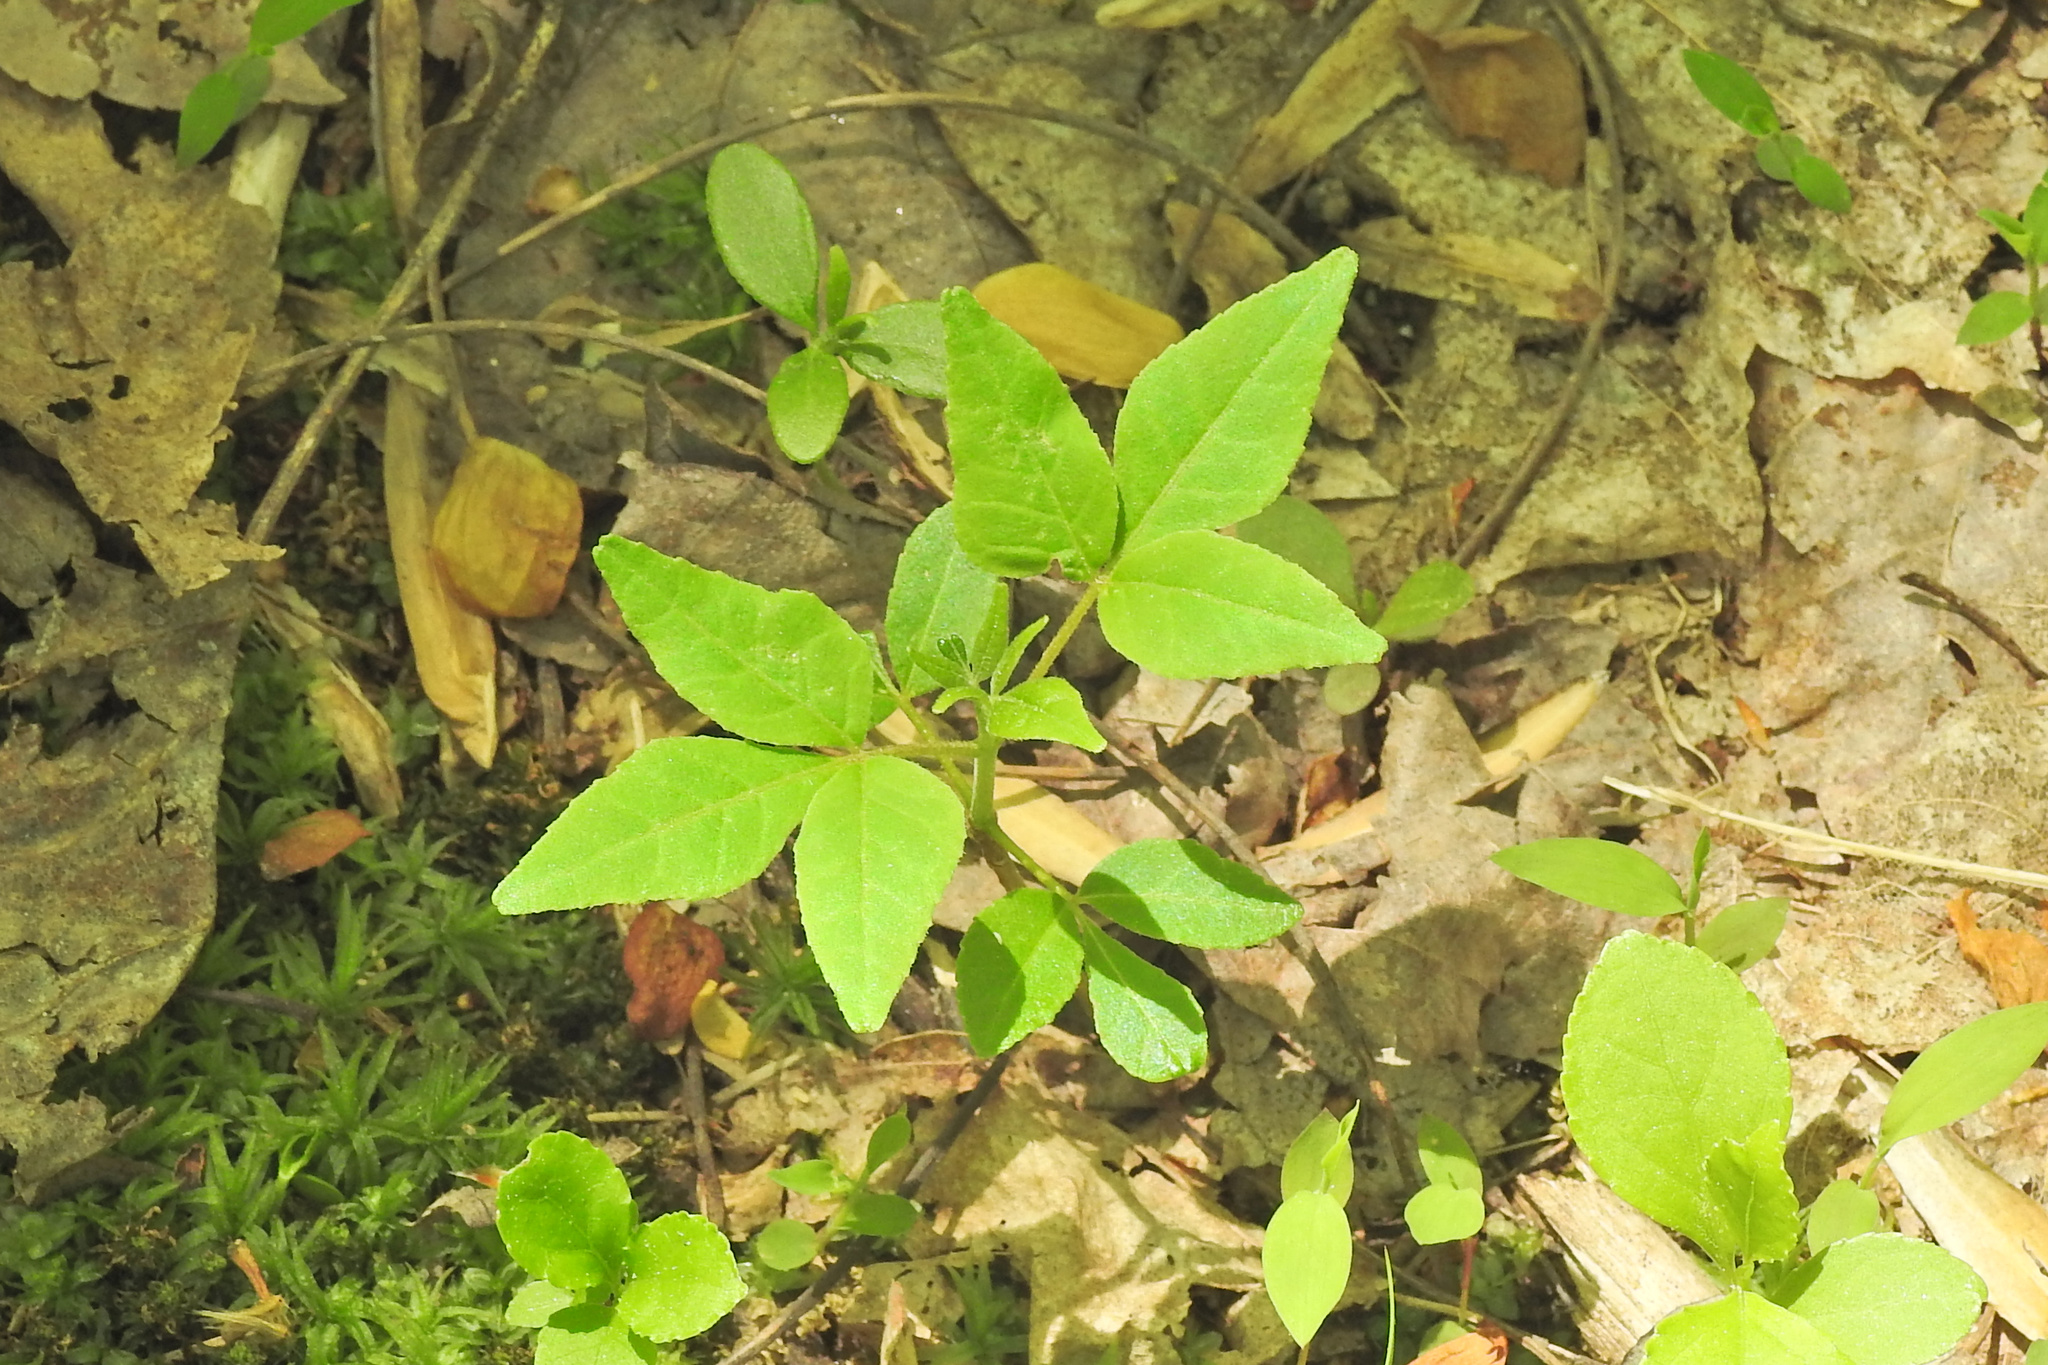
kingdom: Plantae
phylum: Tracheophyta
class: Magnoliopsida
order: Sapindales
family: Rutaceae
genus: Phellodendron
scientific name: Phellodendron amurense
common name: Amur corktree
